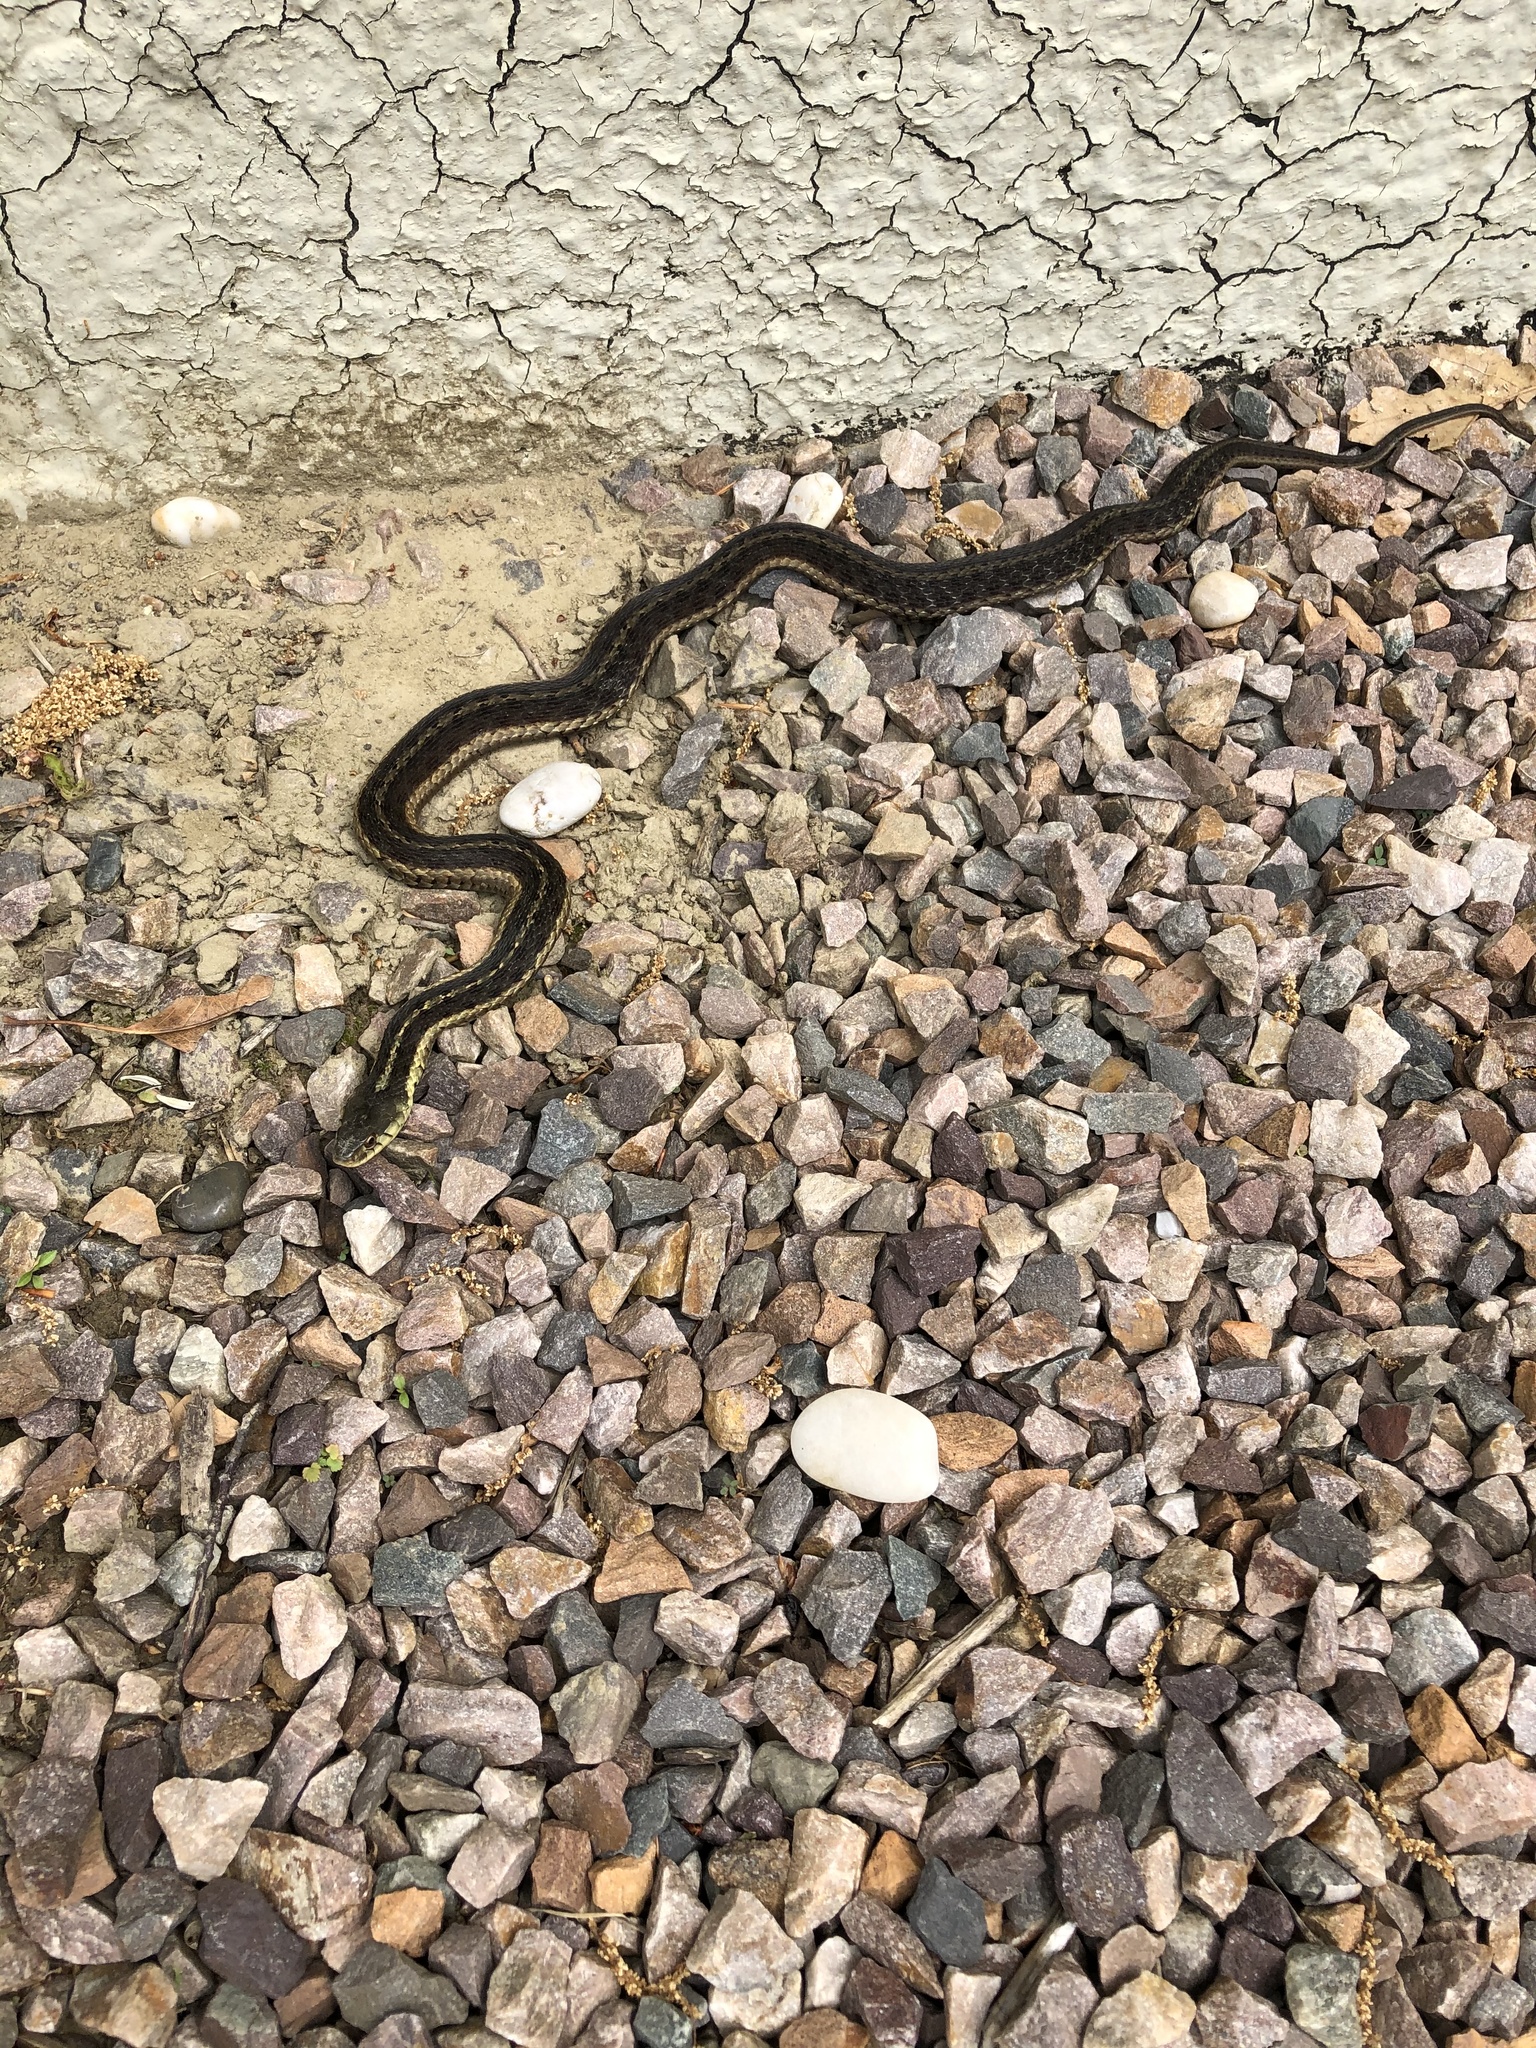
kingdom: Animalia
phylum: Chordata
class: Squamata
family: Colubridae
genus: Thamnophis
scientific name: Thamnophis sirtalis
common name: Common garter snake
